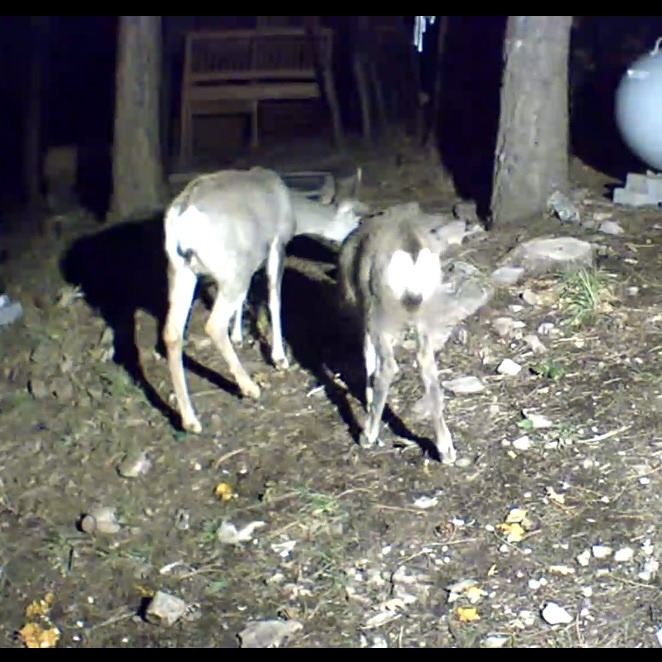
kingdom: Animalia
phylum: Chordata
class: Mammalia
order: Artiodactyla
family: Cervidae
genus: Odocoileus
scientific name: Odocoileus hemionus
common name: Mule deer
